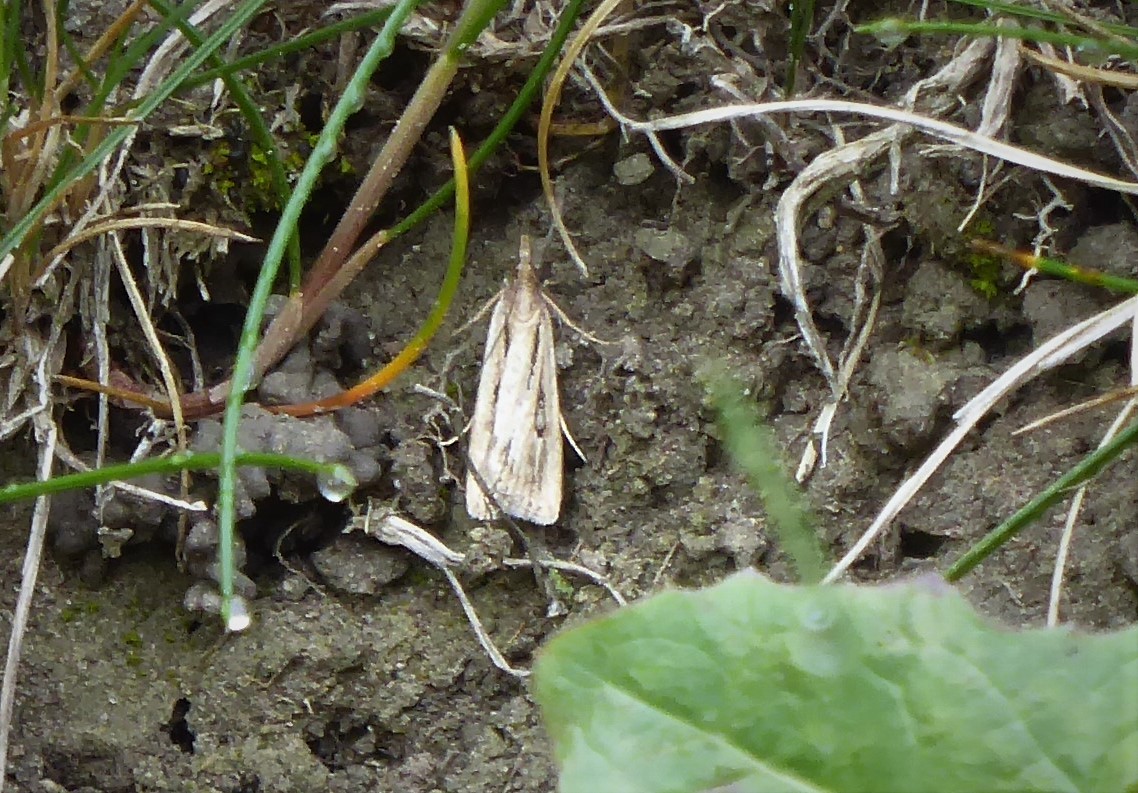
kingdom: Animalia
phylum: Arthropoda
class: Insecta
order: Lepidoptera
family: Crambidae
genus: Eudonia
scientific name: Eudonia sabulosella
